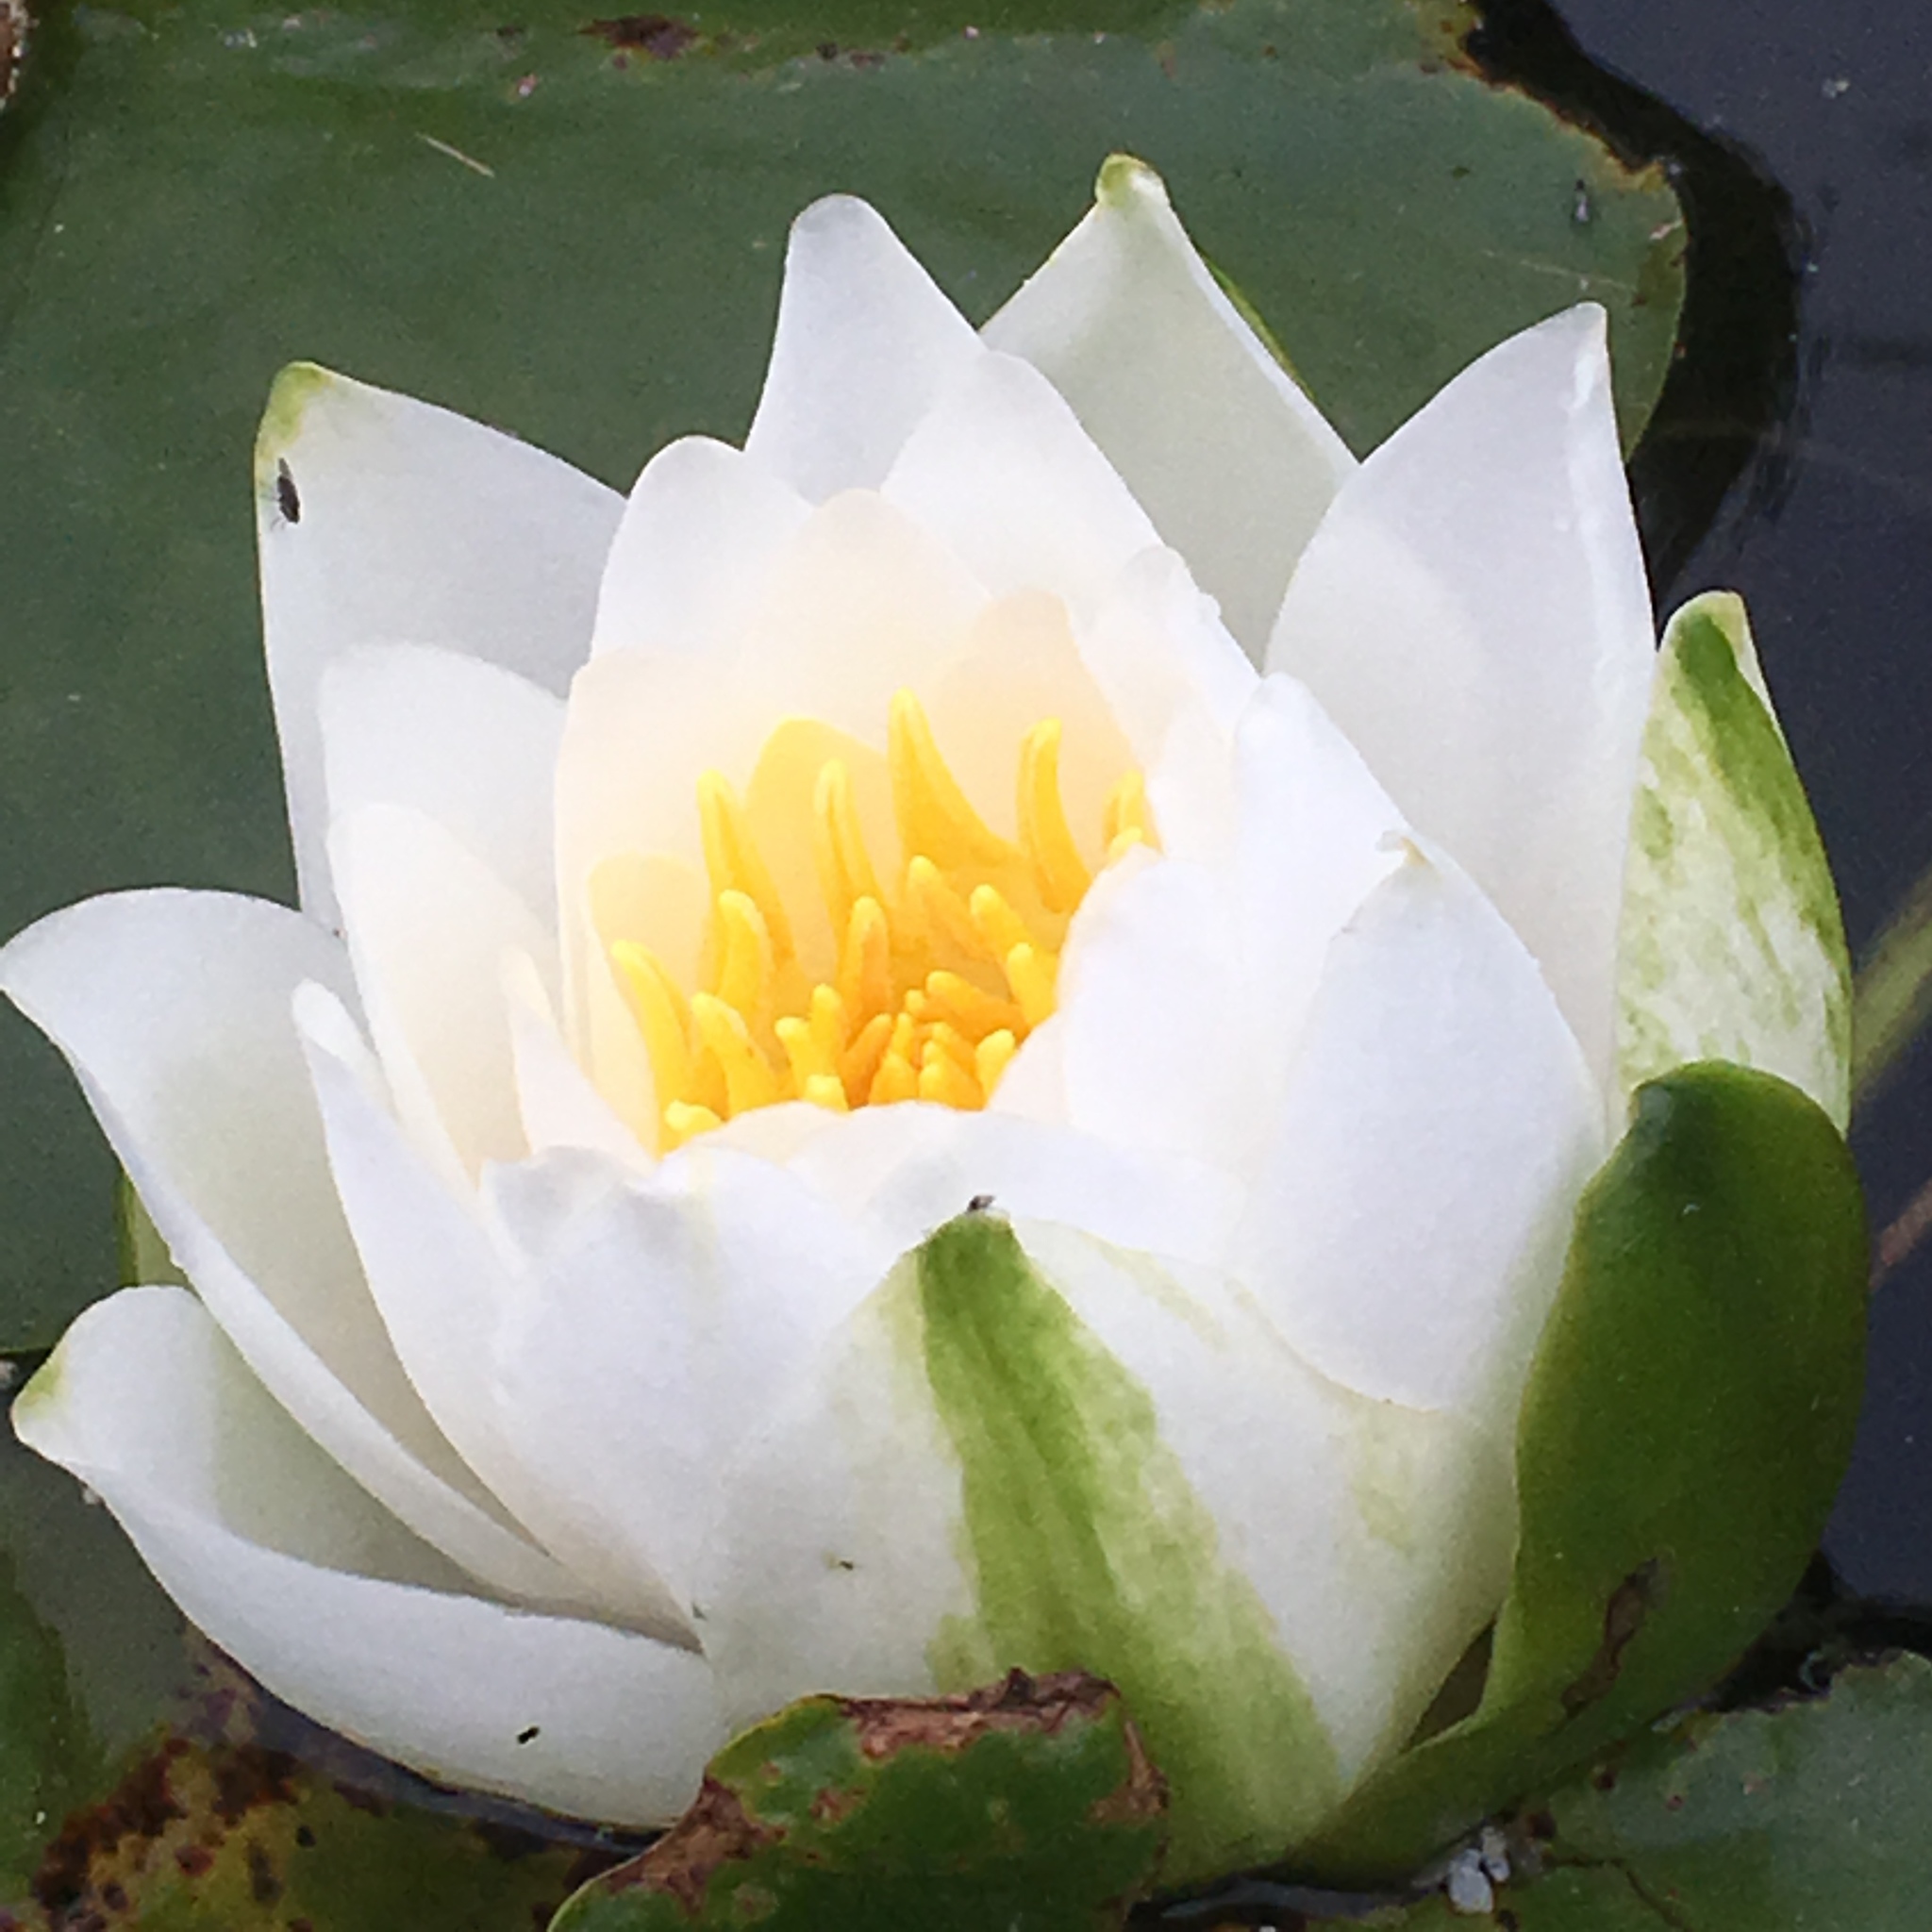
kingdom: Plantae
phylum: Tracheophyta
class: Magnoliopsida
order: Nymphaeales
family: Nymphaeaceae
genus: Nymphaea
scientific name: Nymphaea odorata
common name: Fragrant water-lily
